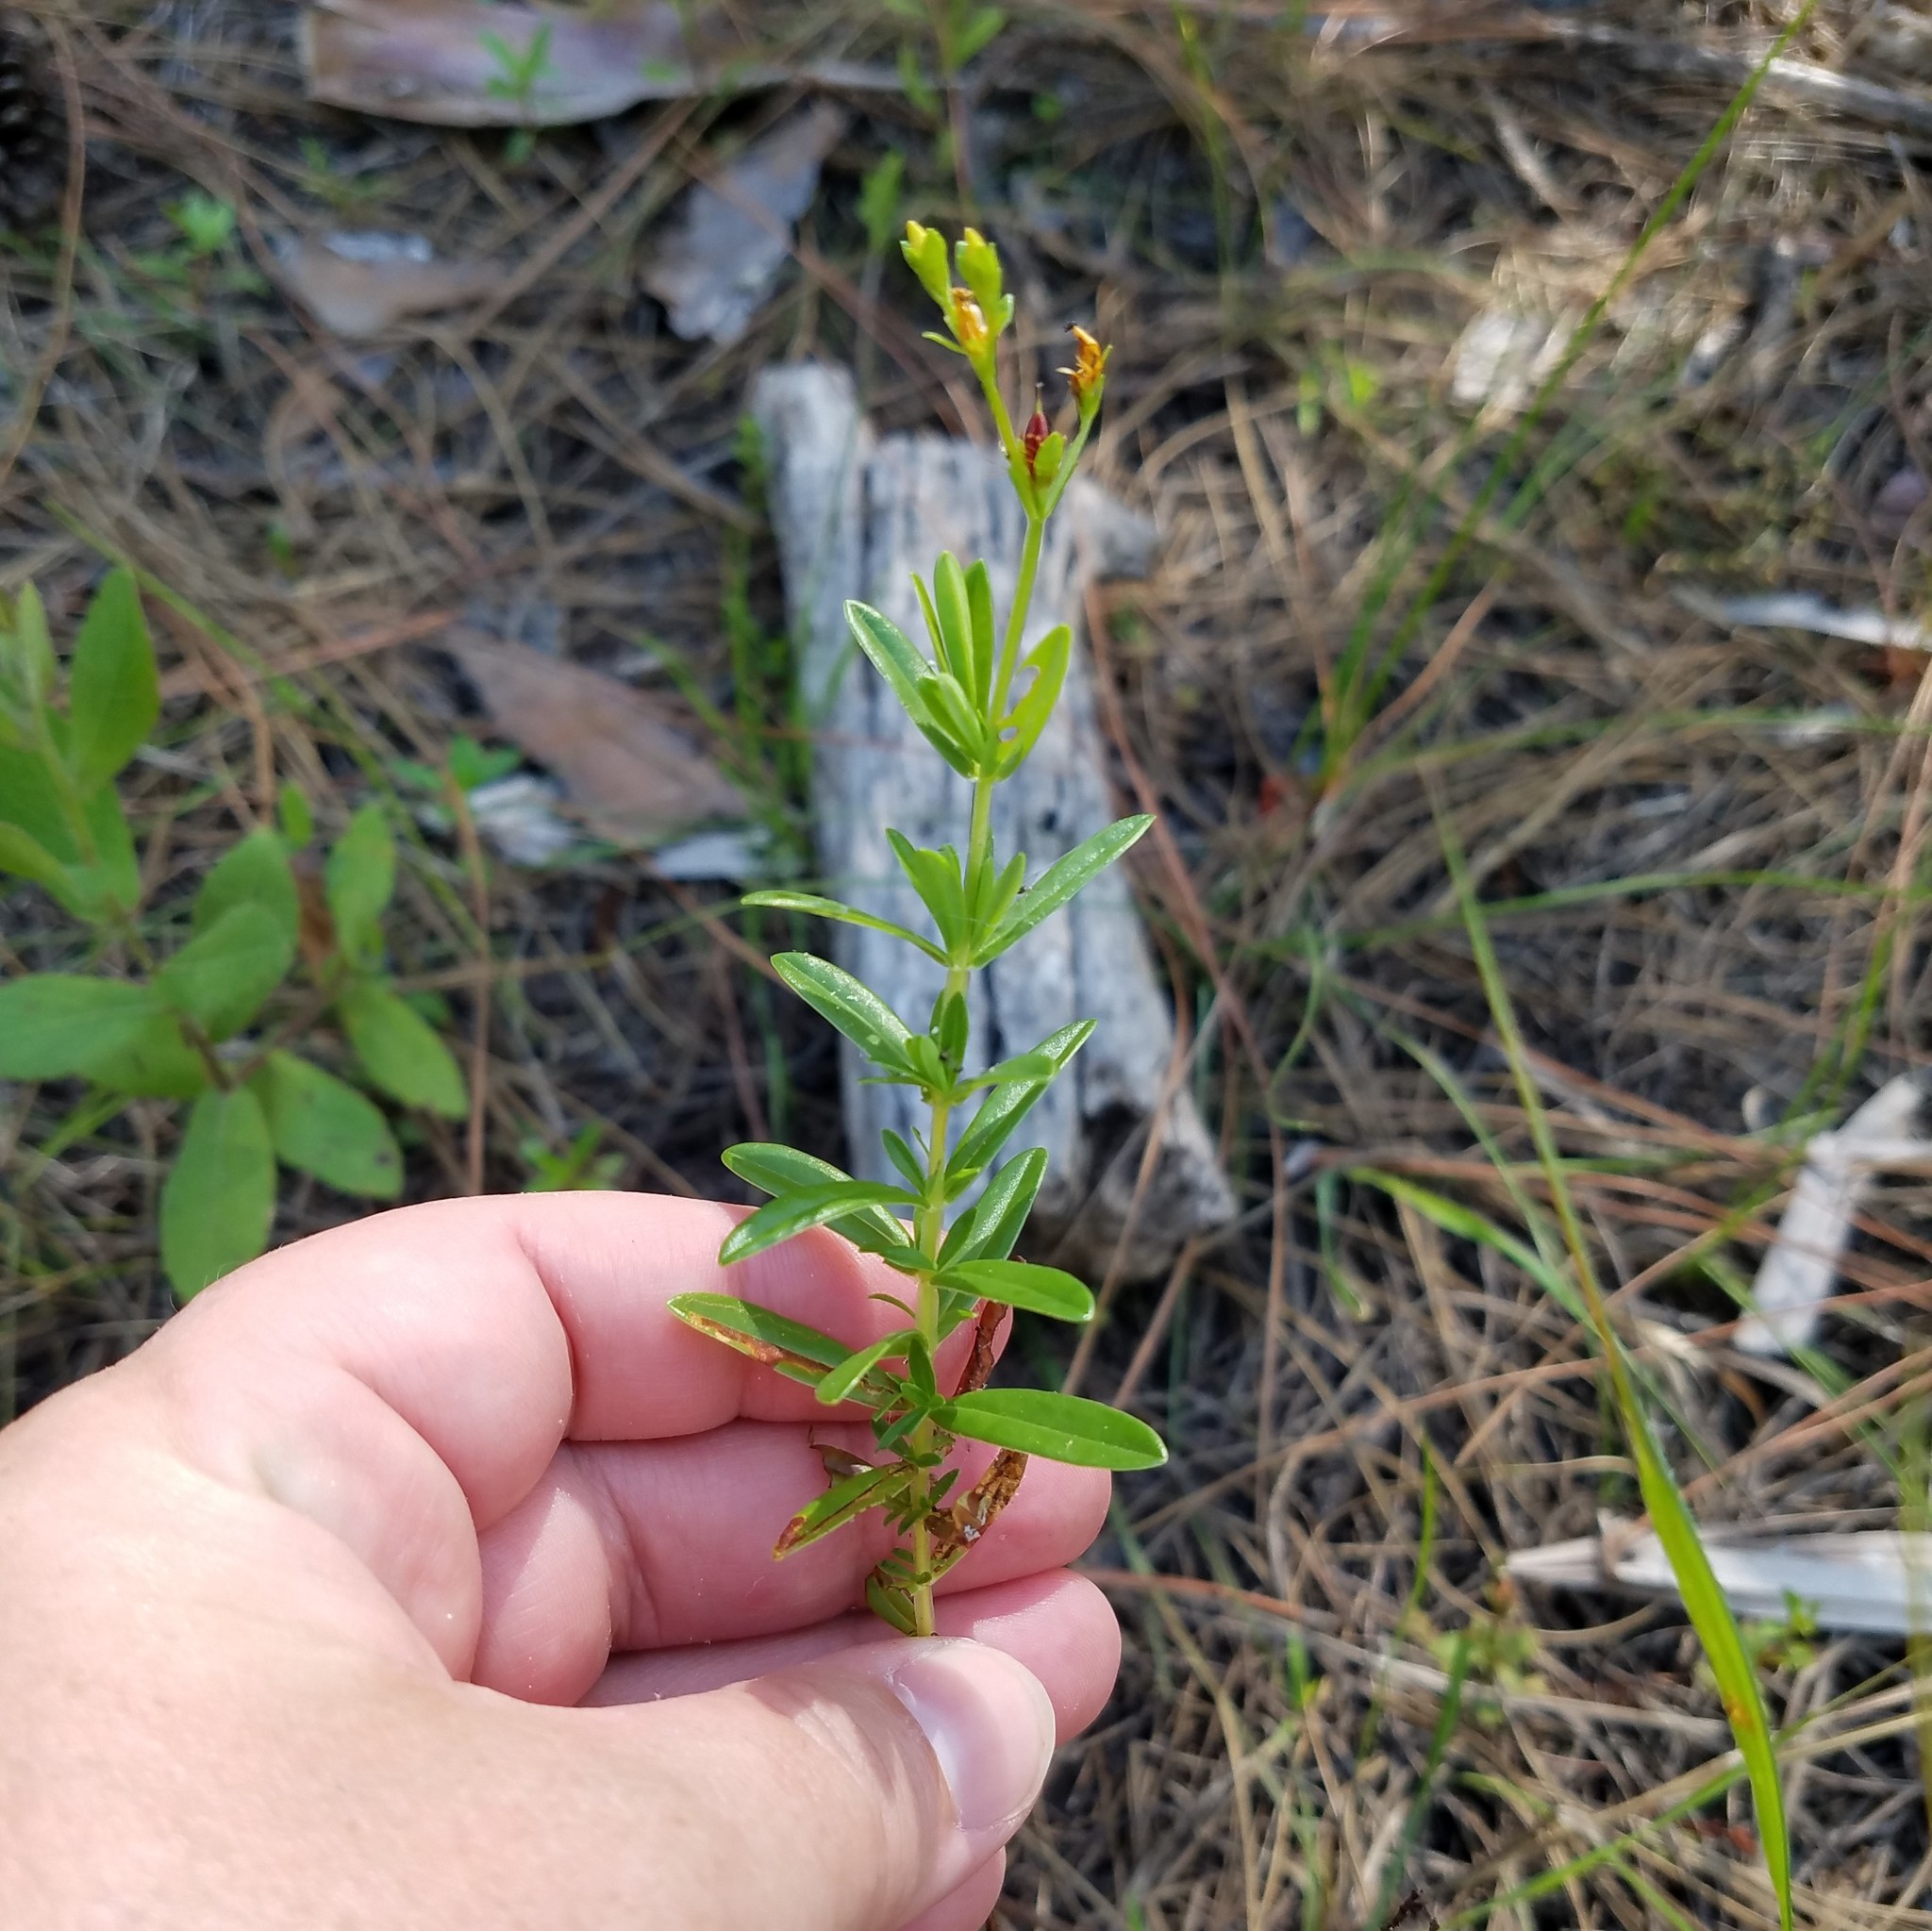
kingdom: Plantae
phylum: Tracheophyta
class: Magnoliopsida
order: Malpighiales
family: Hypericaceae
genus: Hypericum
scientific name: Hypericum cistifolium
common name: Round-pod st. john's-wort
